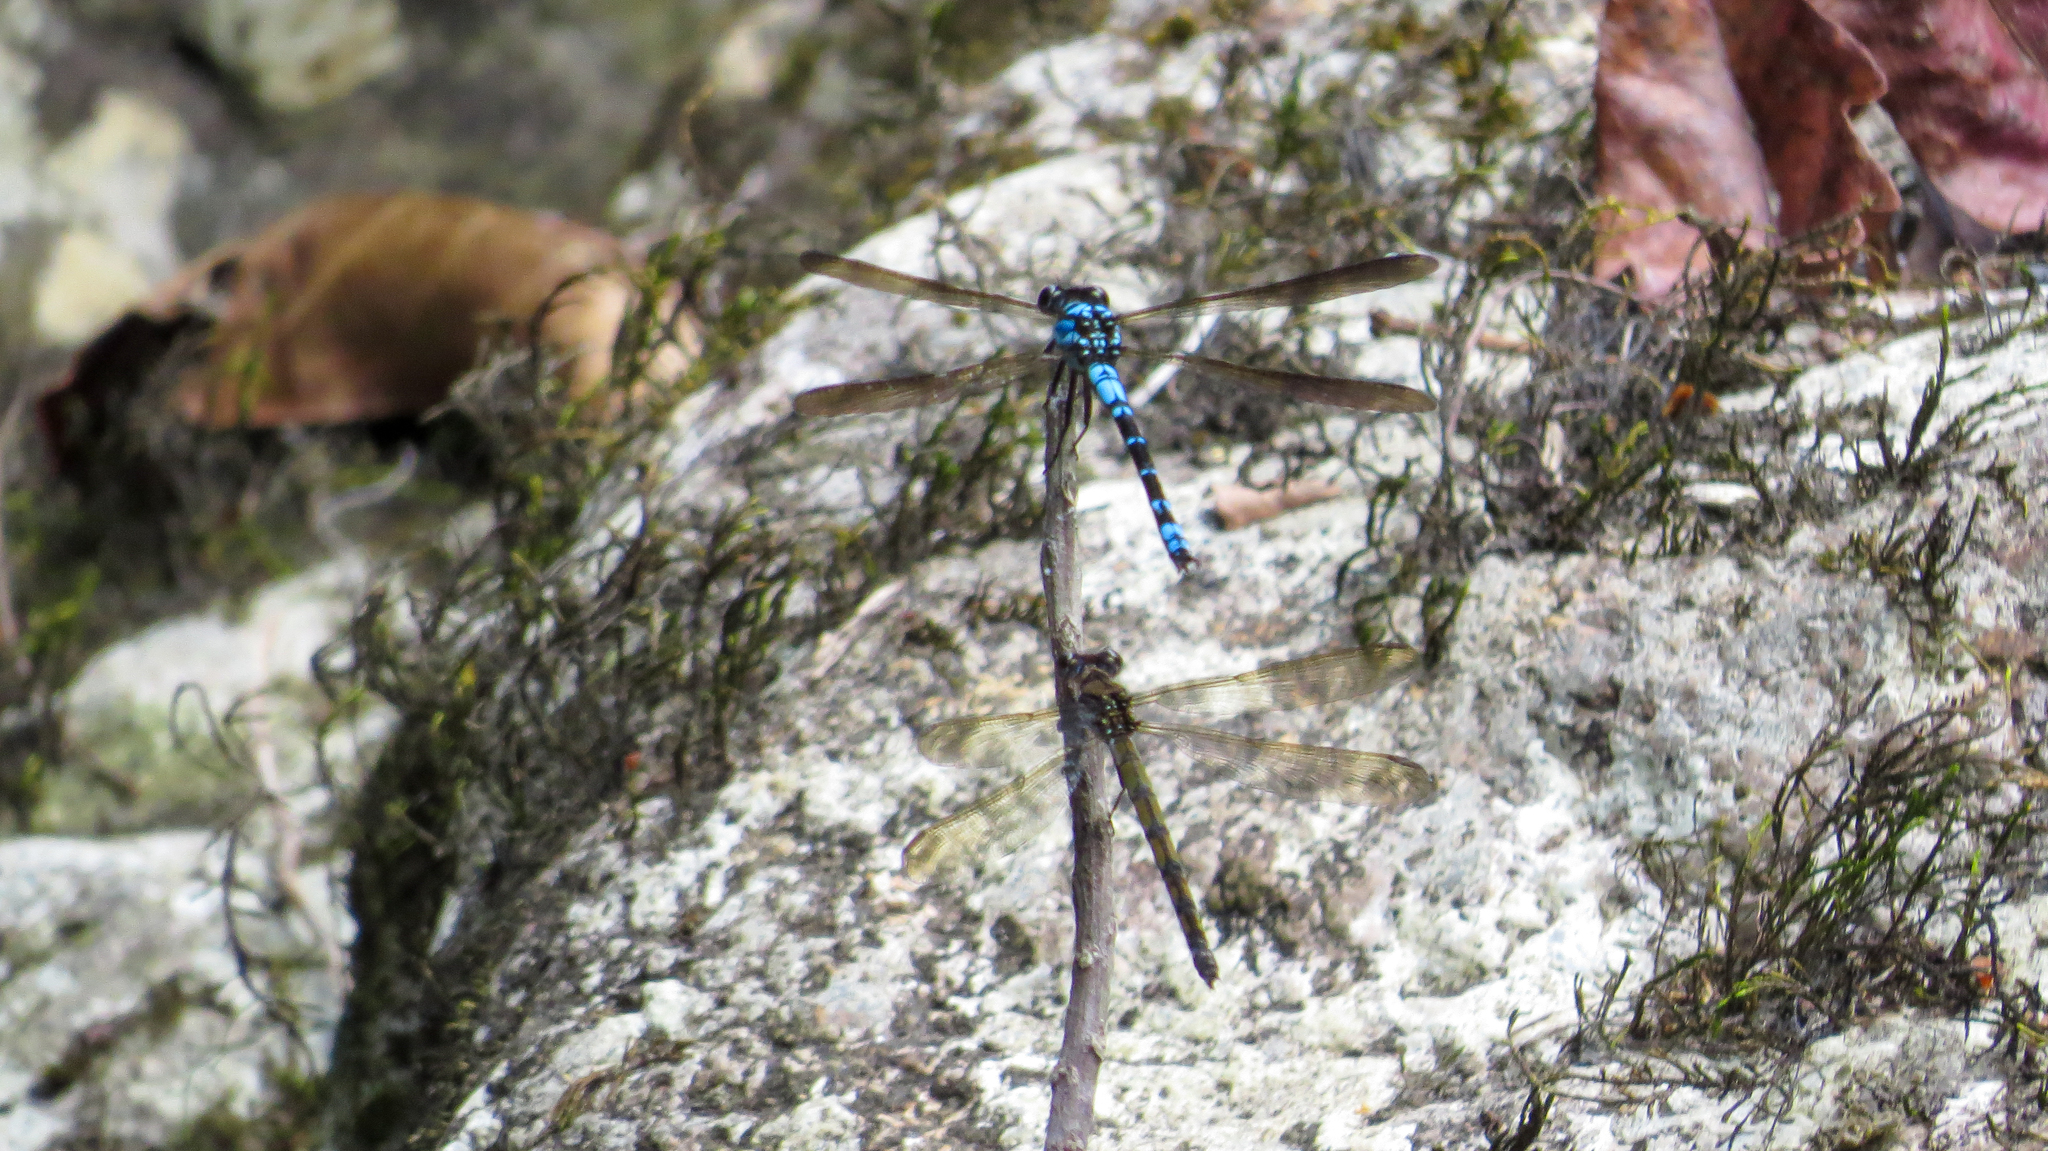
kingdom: Animalia
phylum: Arthropoda
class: Insecta
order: Odonata
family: Lestoideidae
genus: Diphlebia
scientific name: Diphlebia coerulescens
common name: Sapphire rockmaster
